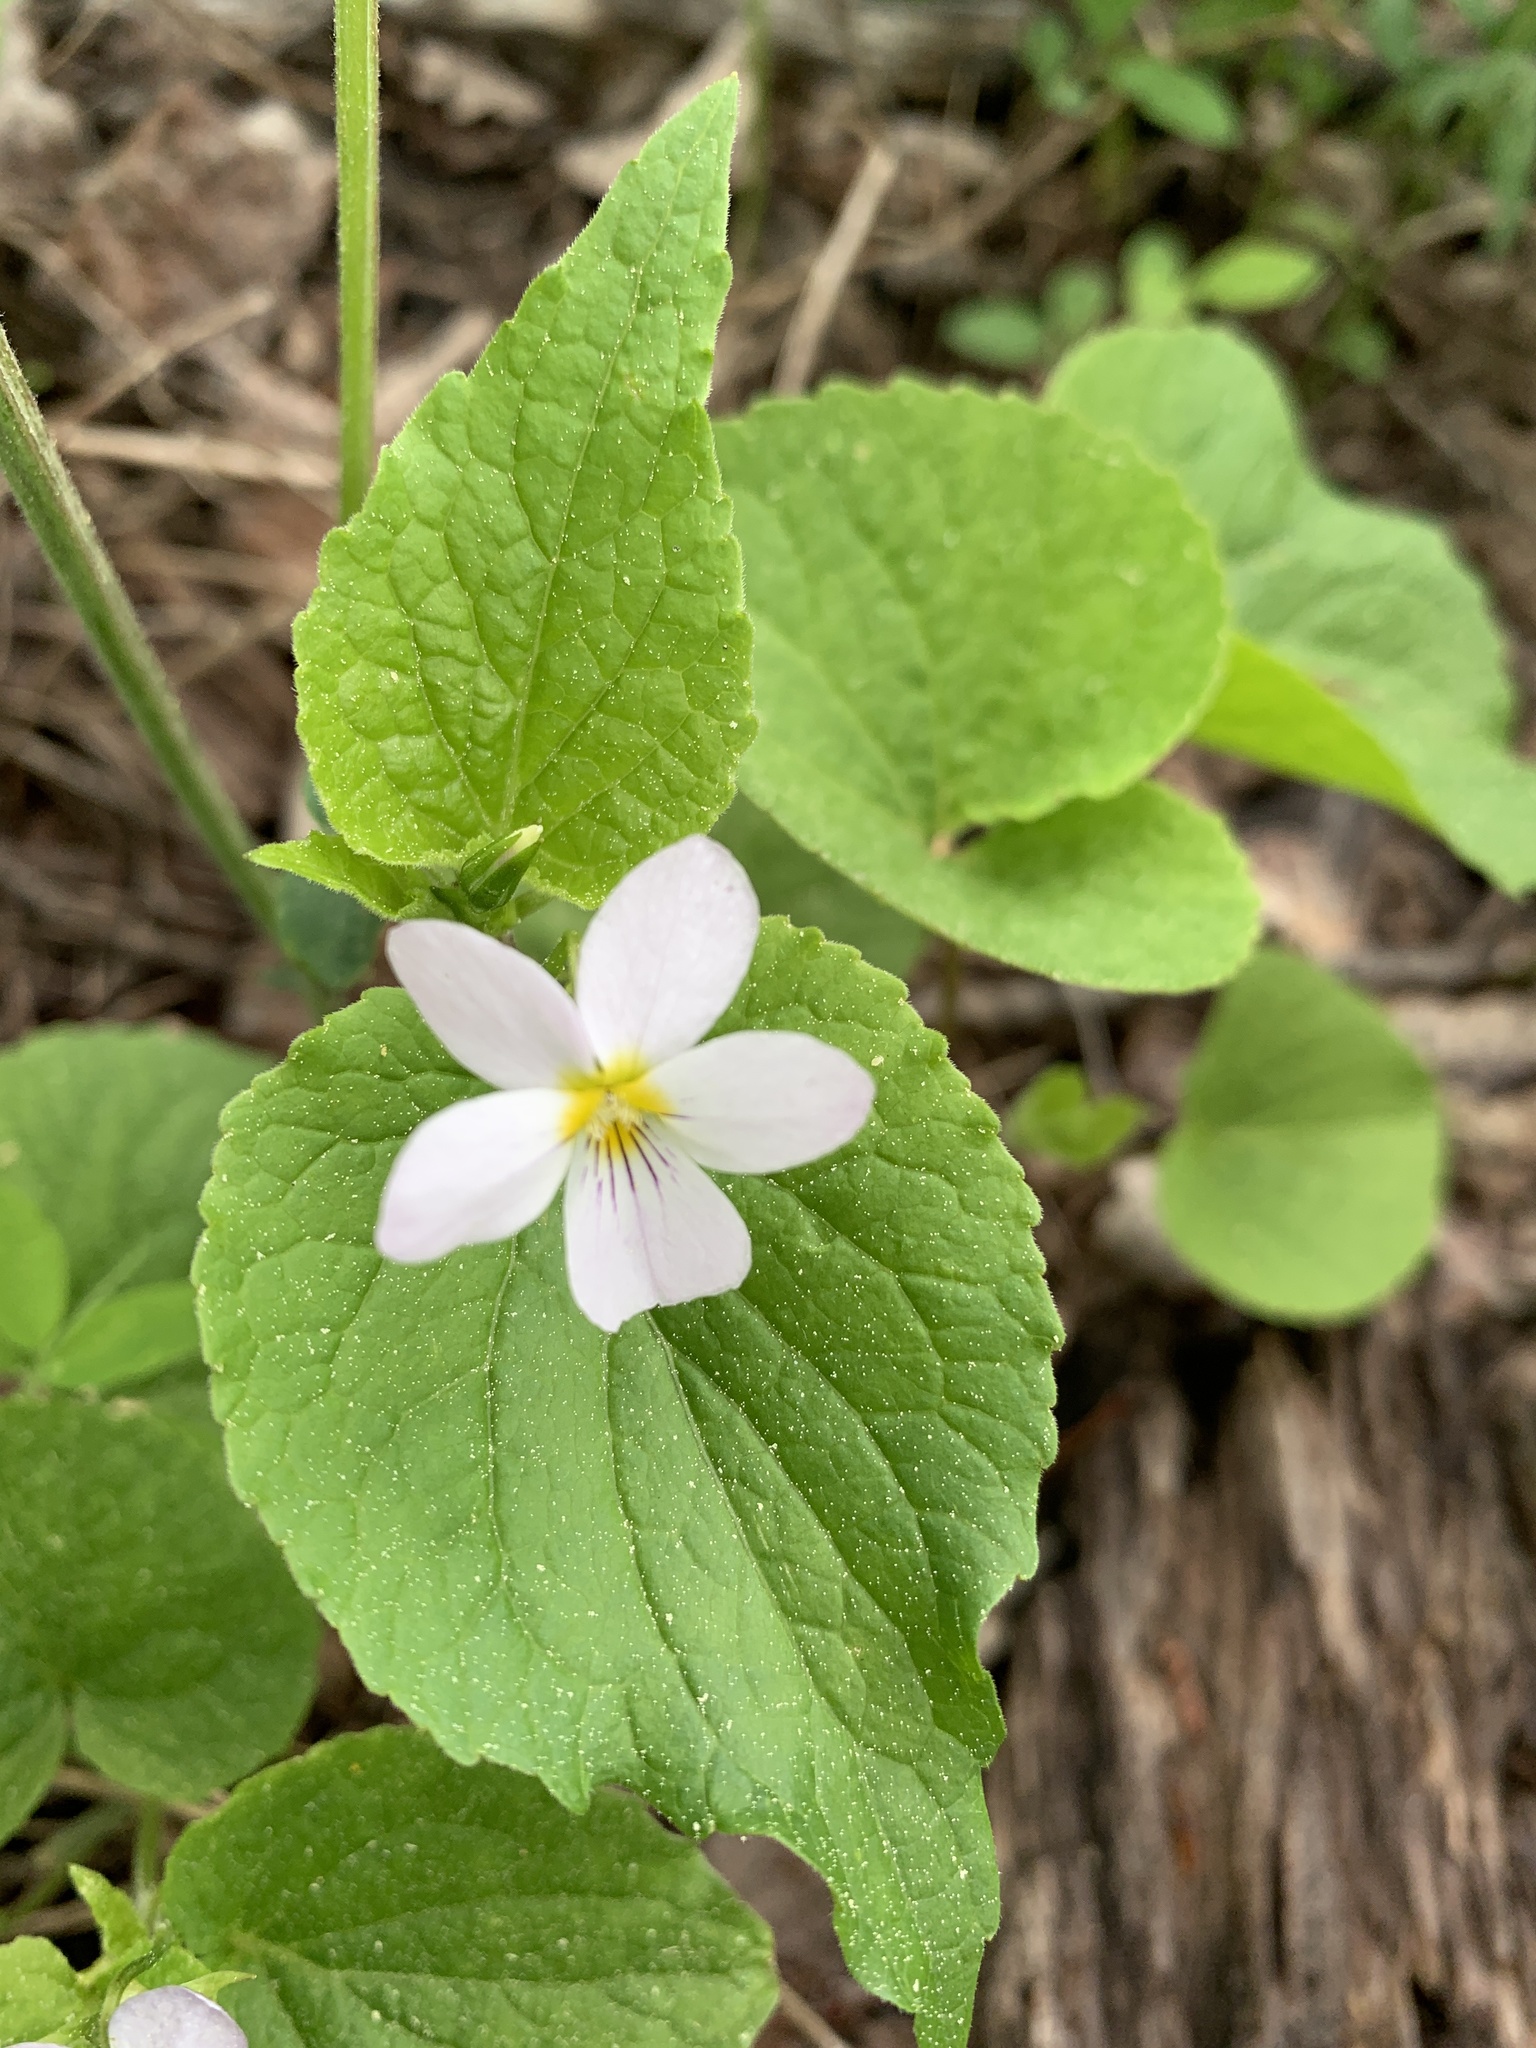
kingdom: Plantae
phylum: Tracheophyta
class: Magnoliopsida
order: Malpighiales
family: Violaceae
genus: Viola
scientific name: Viola canadensis
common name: Canada violet
